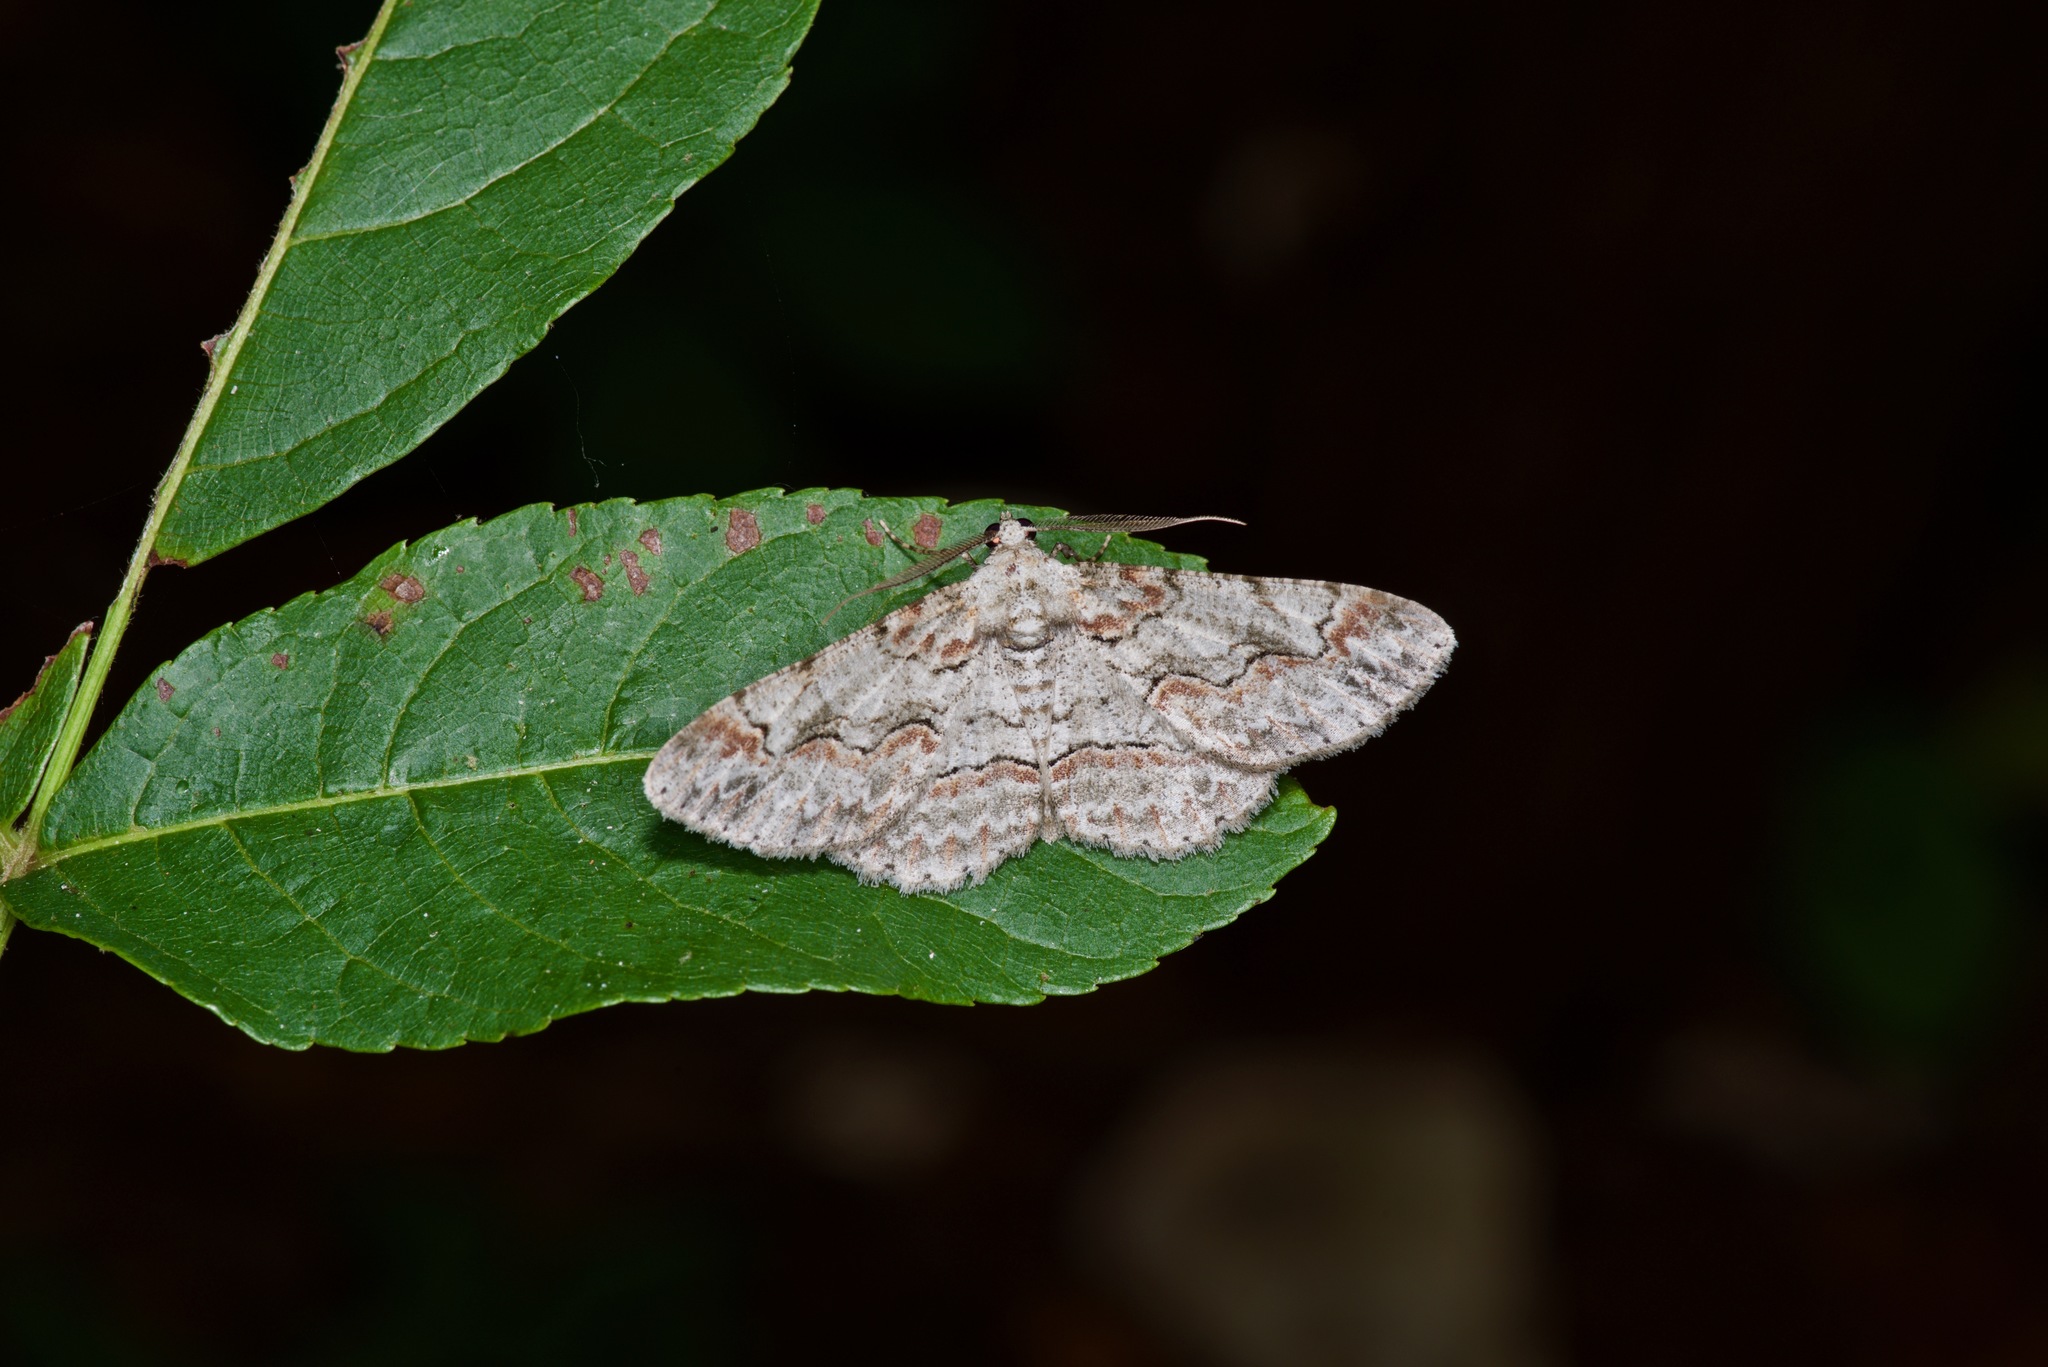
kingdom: Animalia
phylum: Arthropoda
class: Insecta
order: Lepidoptera
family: Geometridae
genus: Iridopsis
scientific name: Iridopsis defectaria
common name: Brown-shaded gray
